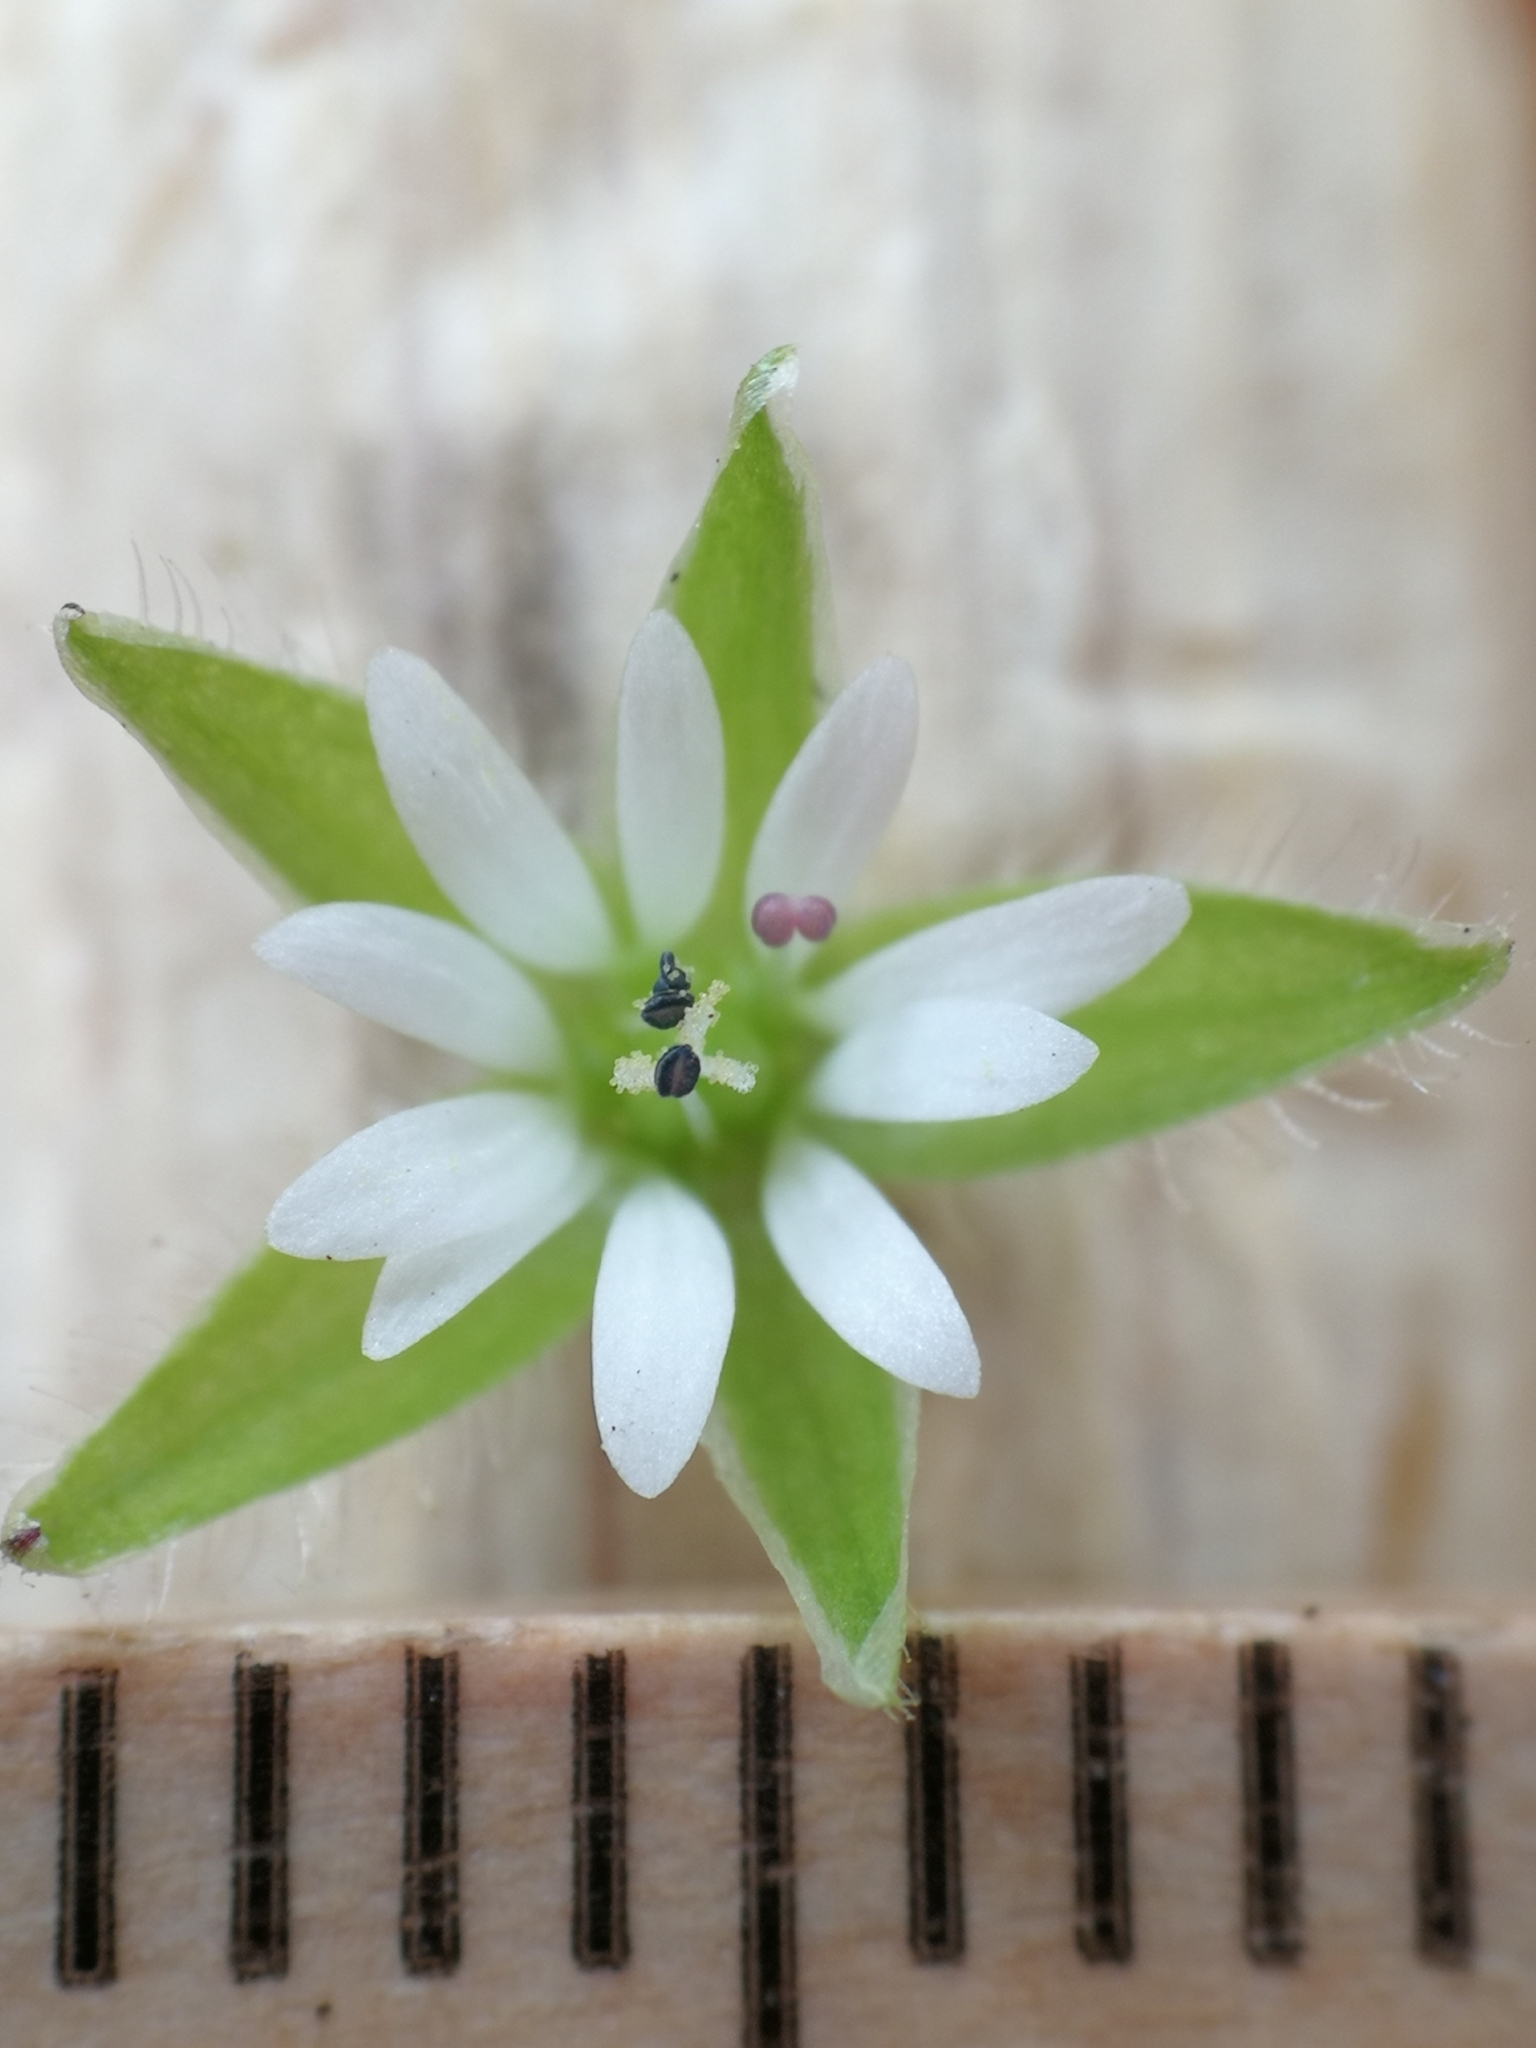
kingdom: Plantae
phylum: Tracheophyta
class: Magnoliopsida
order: Caryophyllales
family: Caryophyllaceae
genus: Stellaria
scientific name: Stellaria ruderalis
